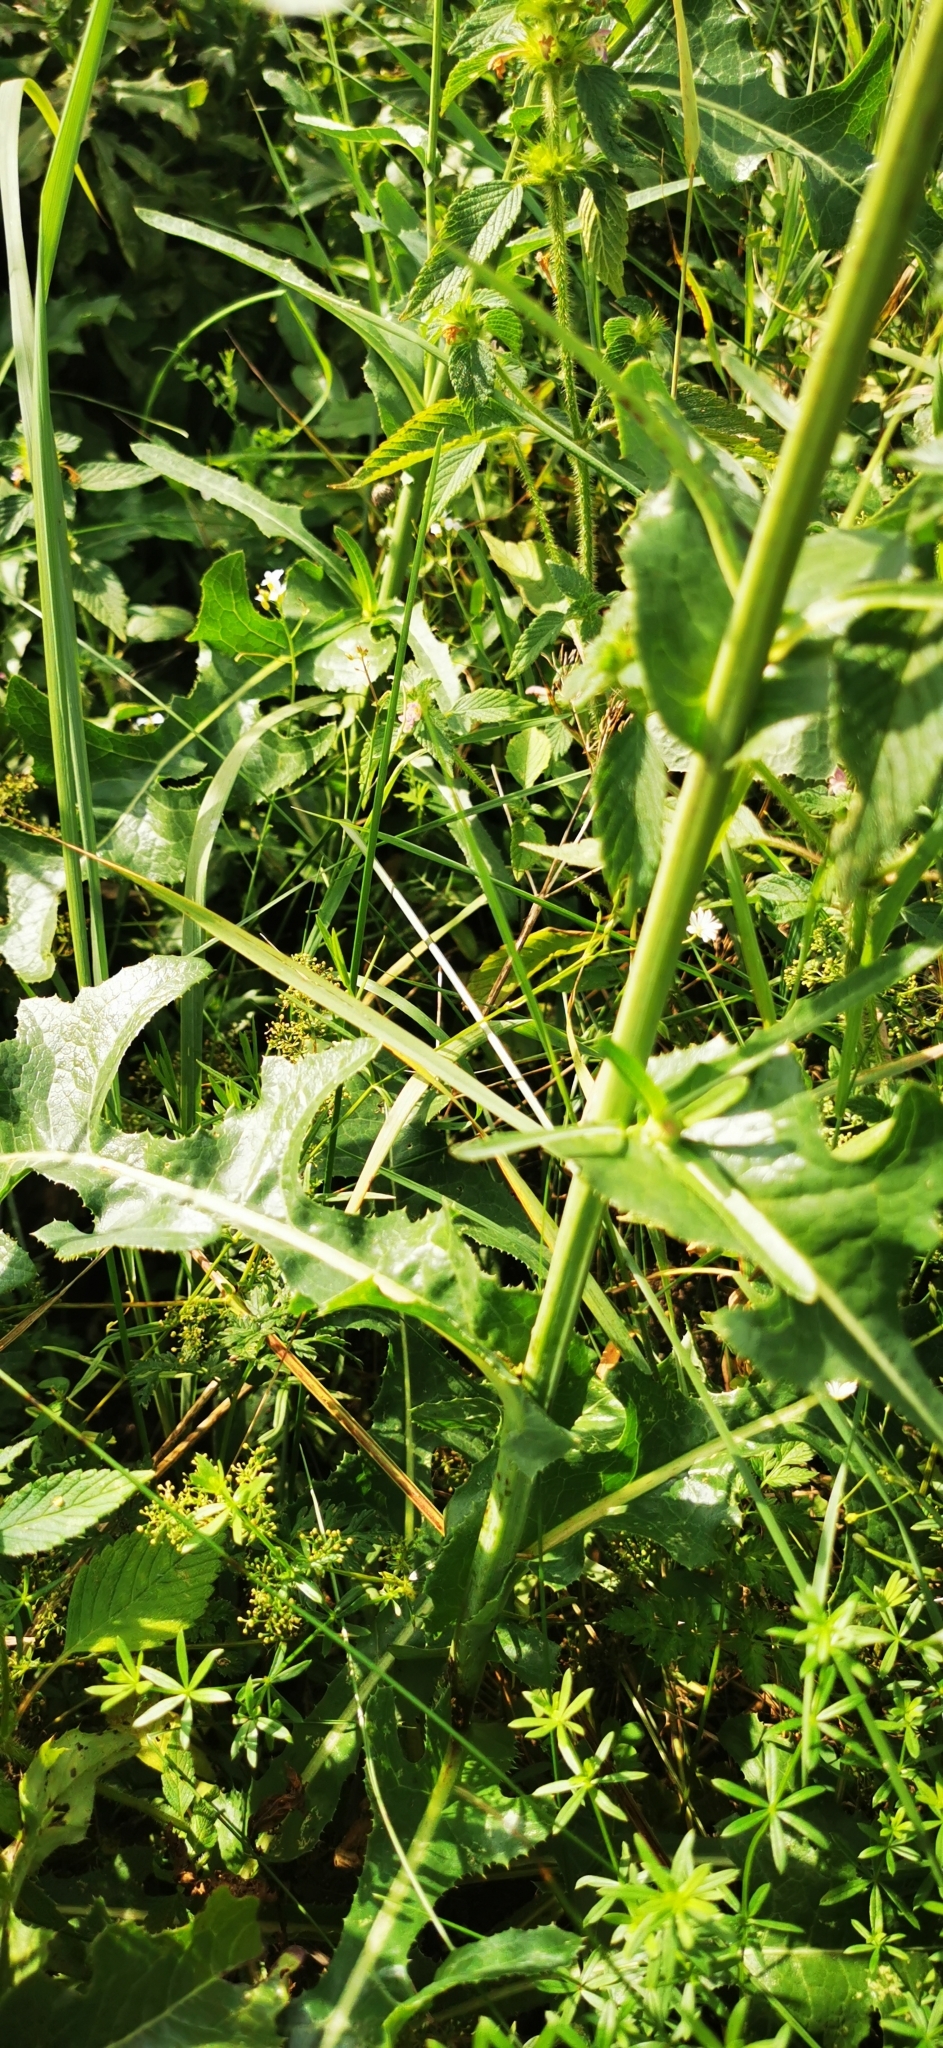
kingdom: Plantae
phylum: Tracheophyta
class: Magnoliopsida
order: Asterales
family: Asteraceae
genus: Sonchus
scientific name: Sonchus arvensis
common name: Perennial sow-thistle
